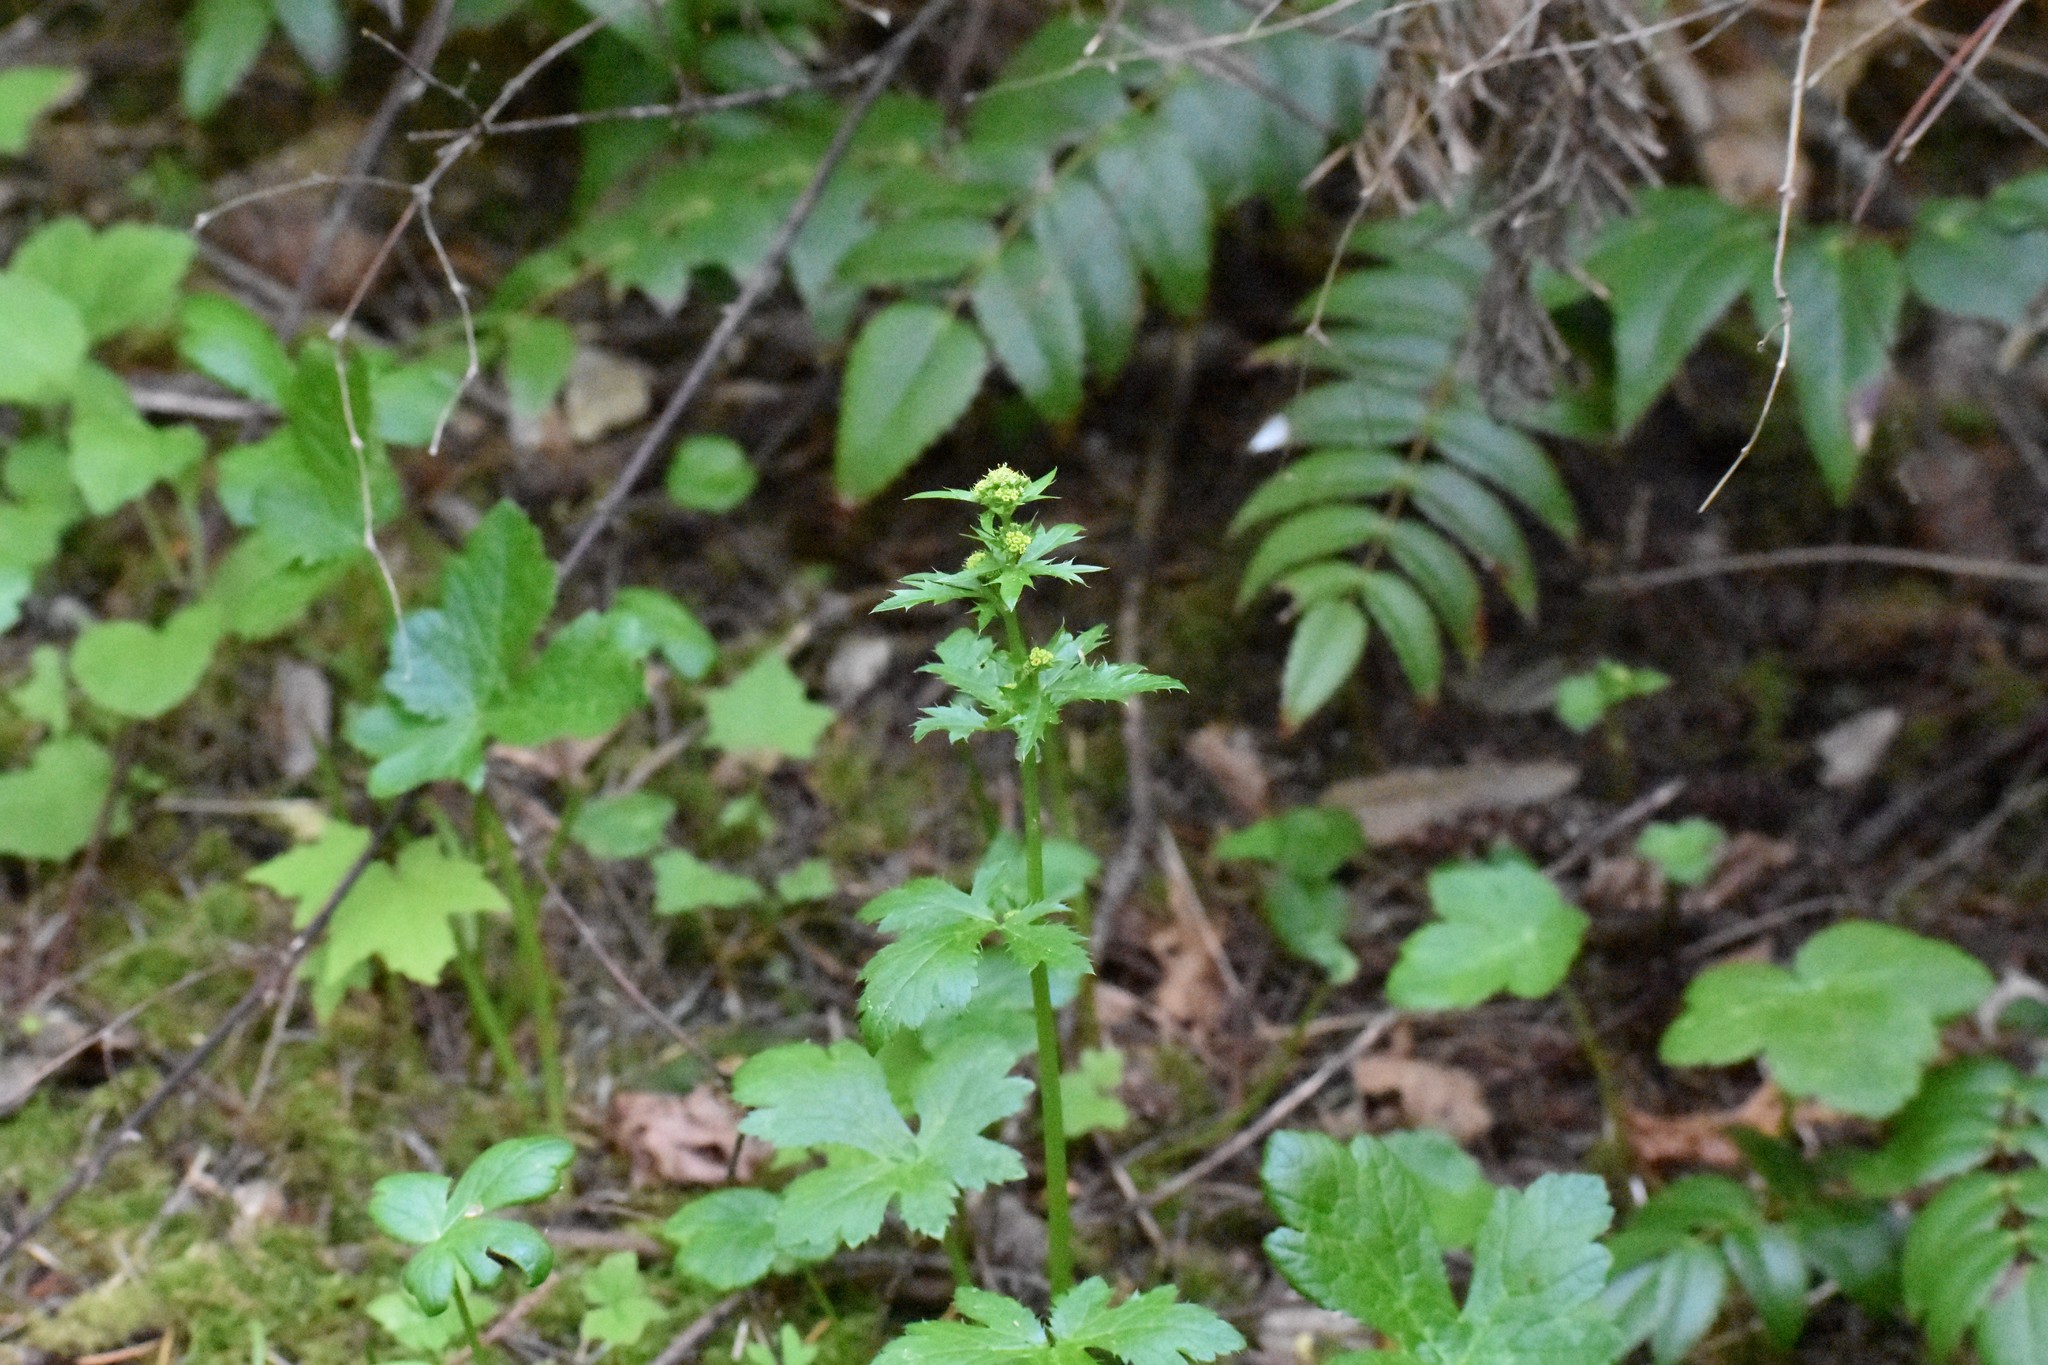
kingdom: Plantae
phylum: Tracheophyta
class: Magnoliopsida
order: Apiales
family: Apiaceae
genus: Sanicula
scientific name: Sanicula crassicaulis
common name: Western snakeroot
